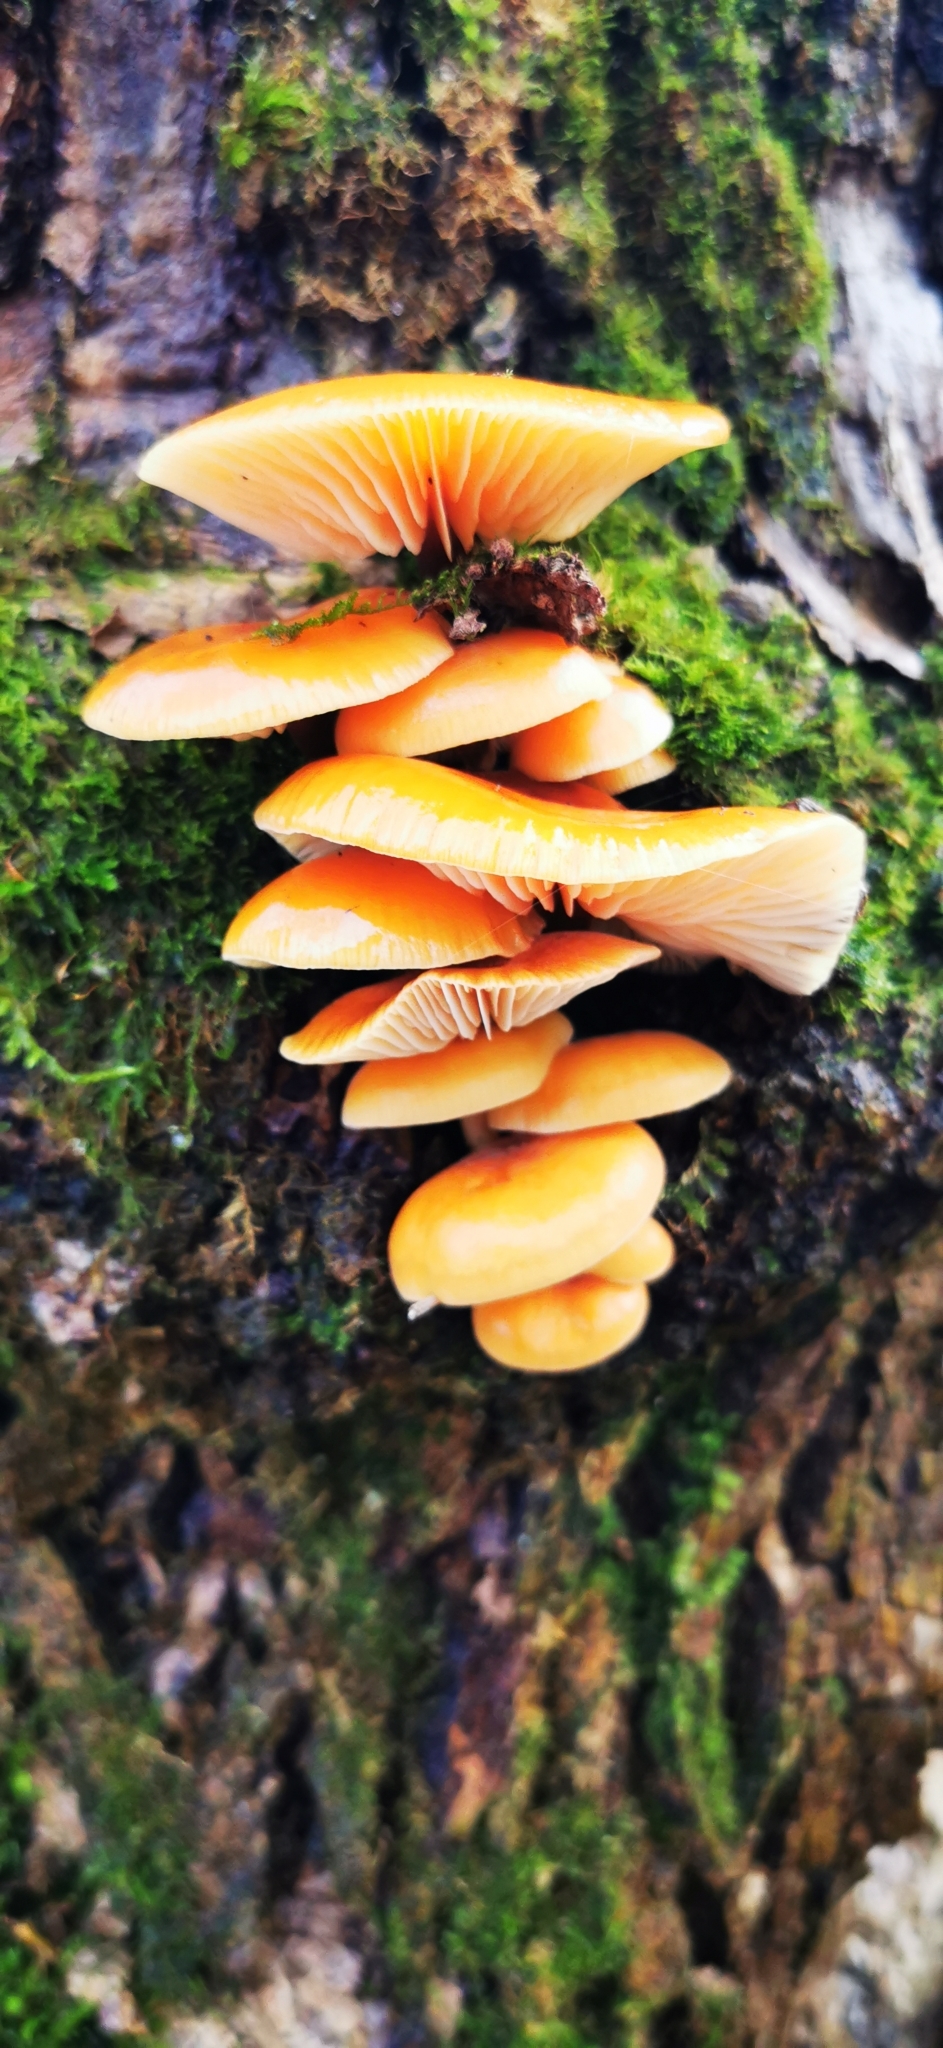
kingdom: Fungi
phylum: Basidiomycota
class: Agaricomycetes
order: Agaricales
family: Physalacriaceae
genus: Flammulina
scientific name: Flammulina
